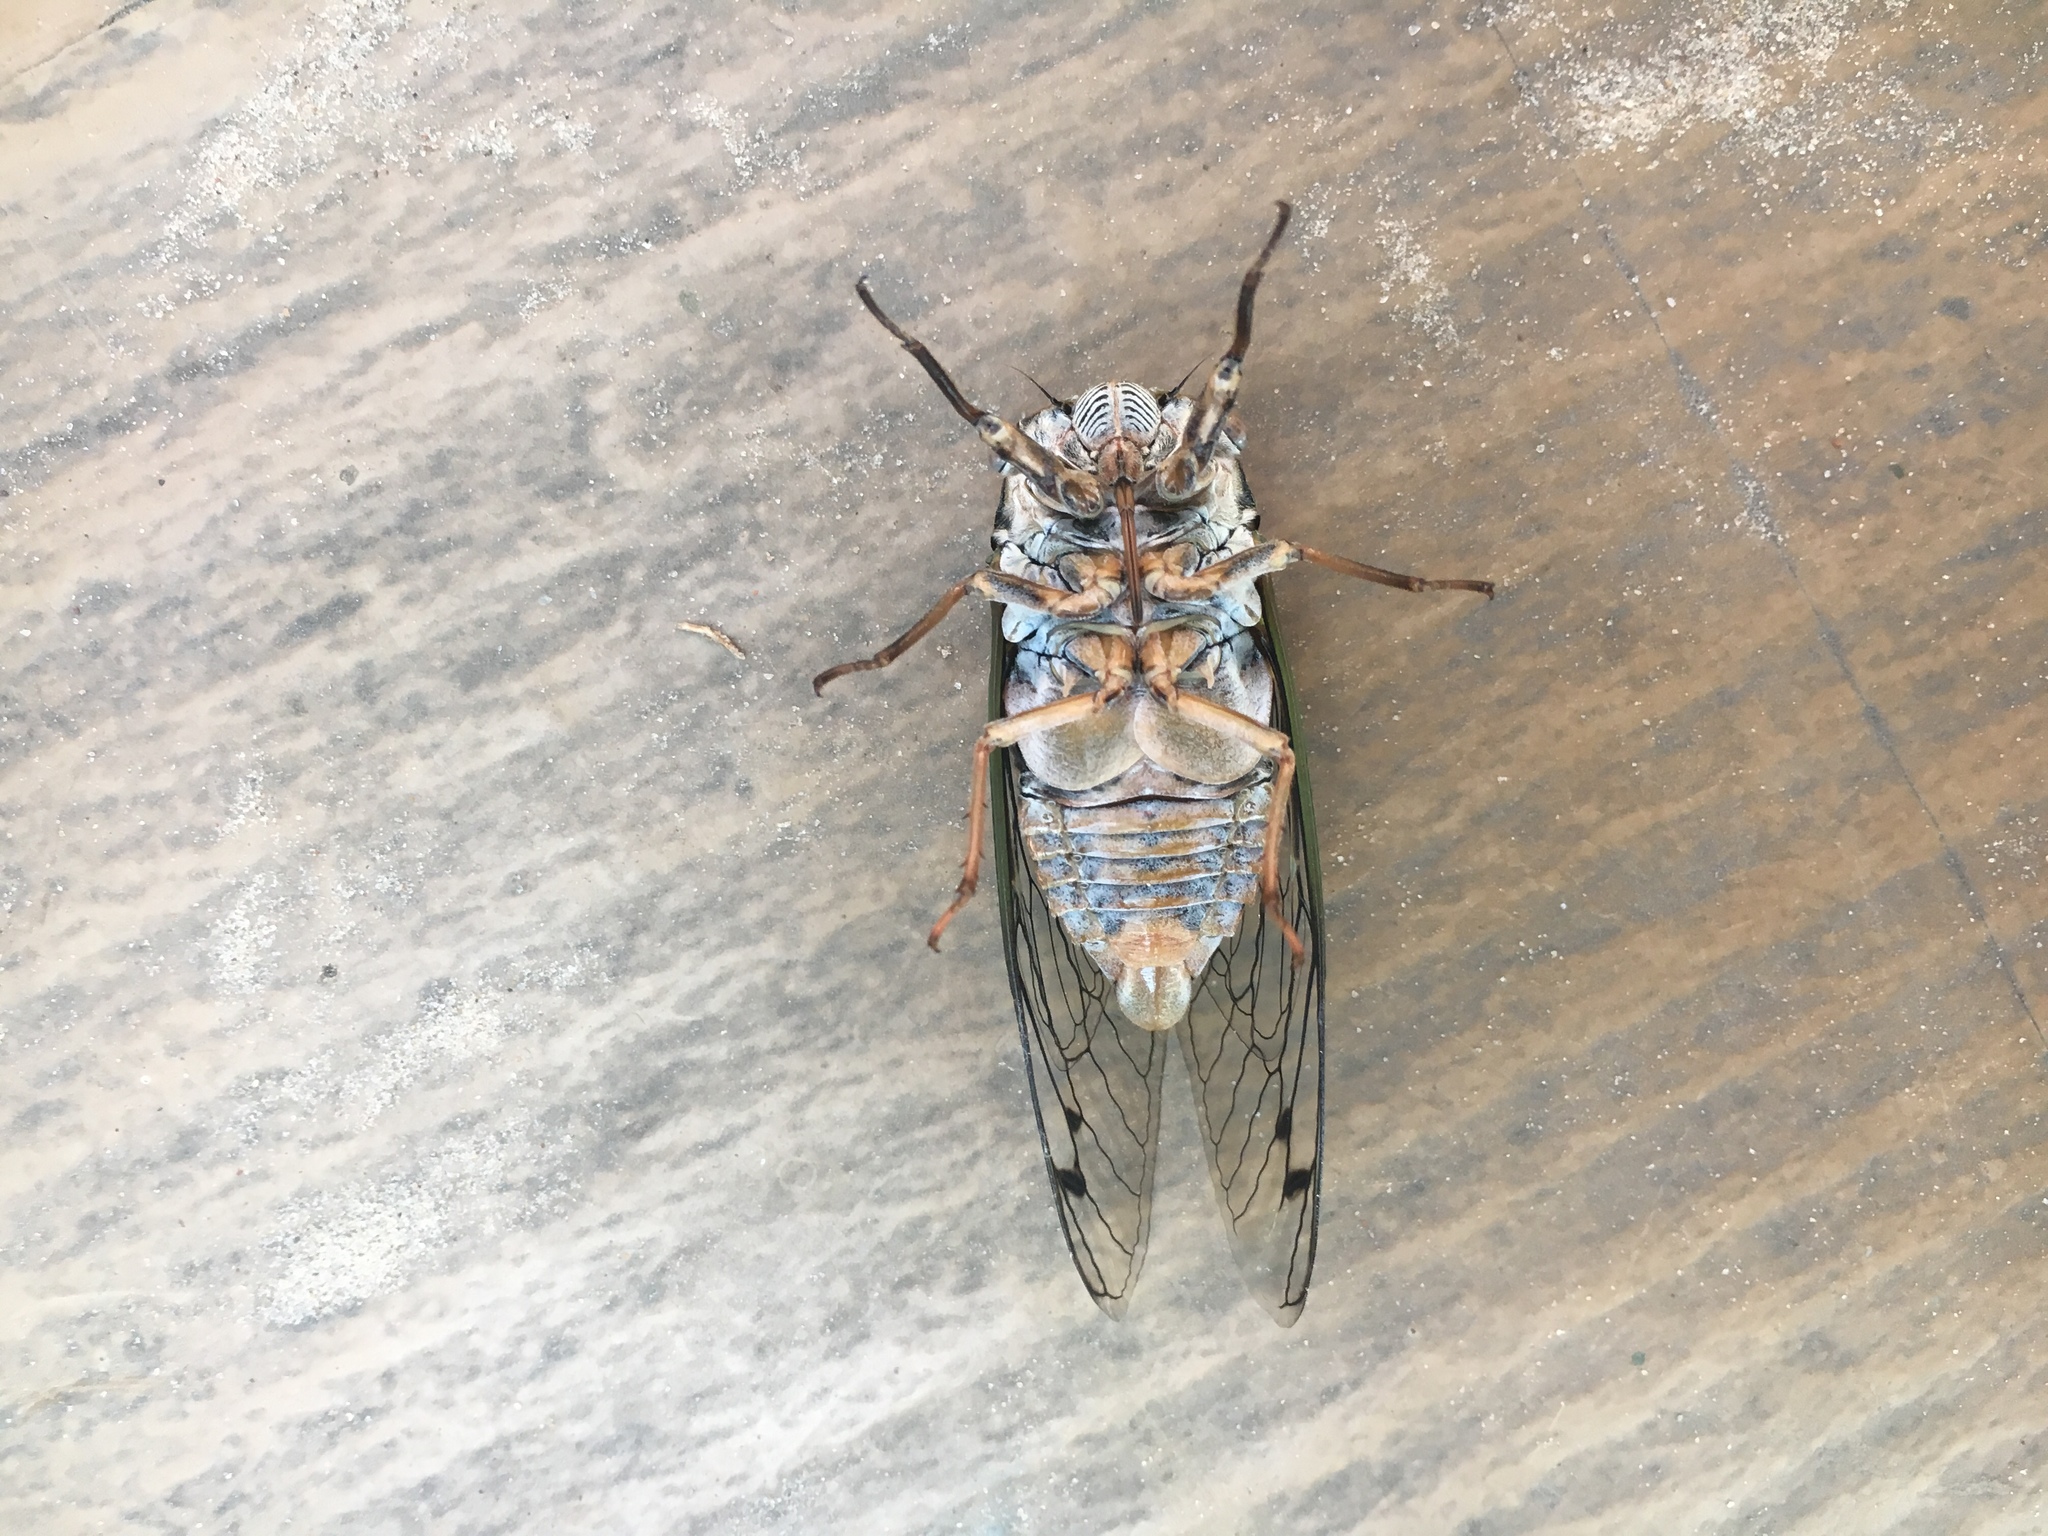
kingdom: Animalia
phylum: Arthropoda
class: Insecta
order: Hemiptera
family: Cicadidae
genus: Megatibicen
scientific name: Megatibicen resh
